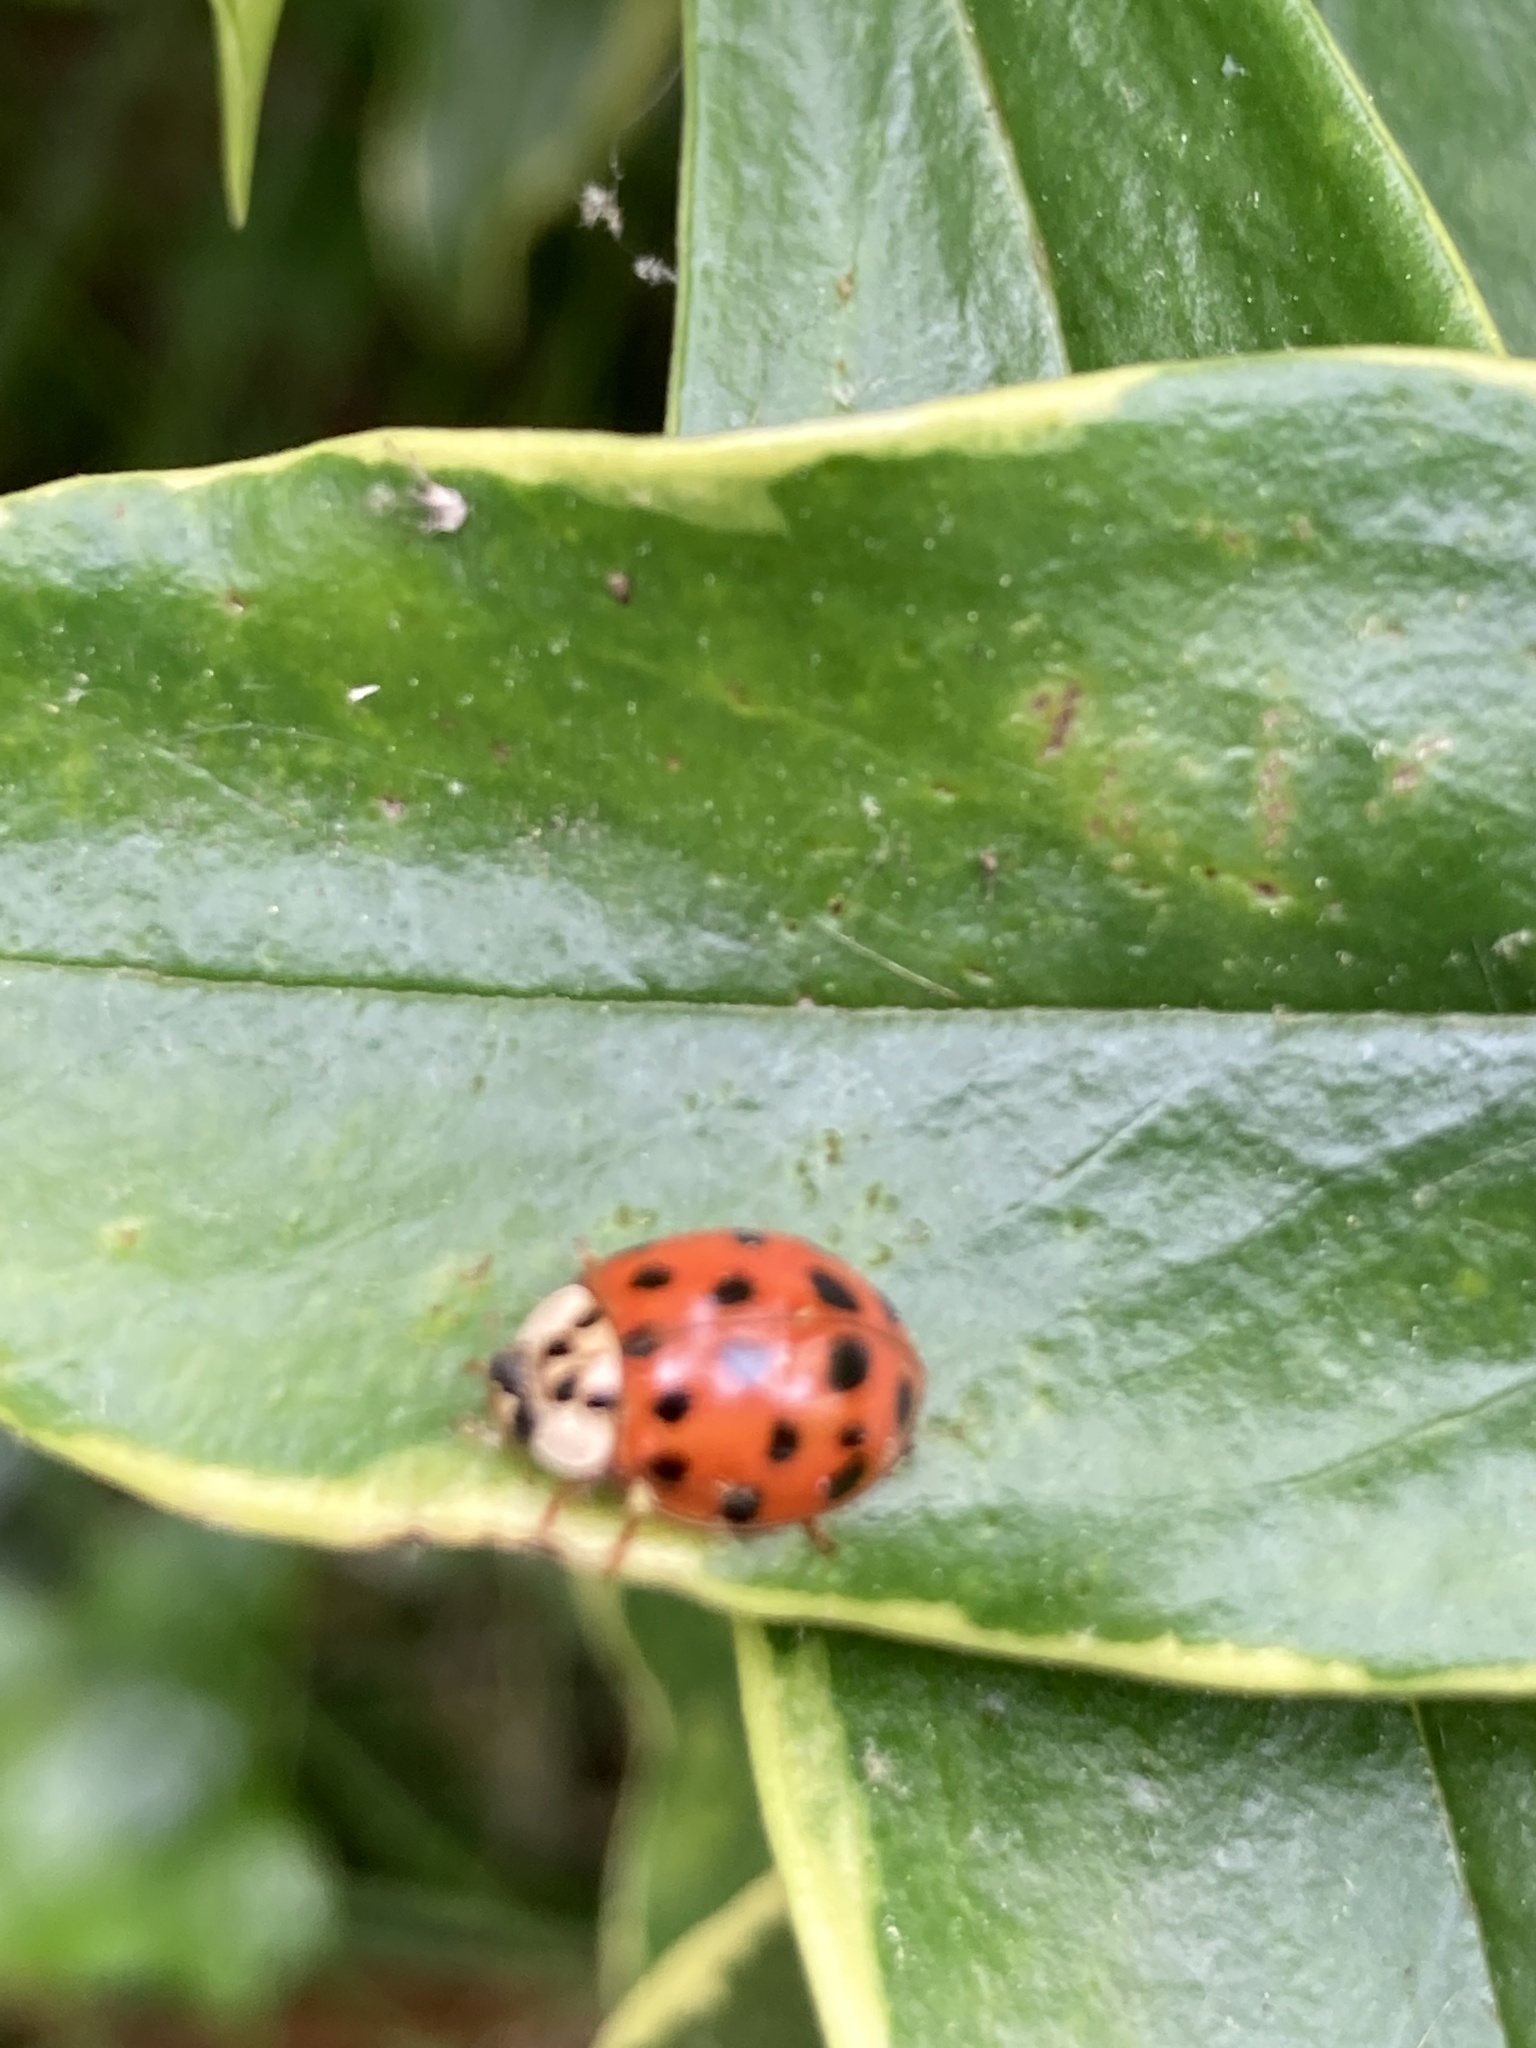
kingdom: Animalia
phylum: Arthropoda
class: Insecta
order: Coleoptera
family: Coccinellidae
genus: Harmonia
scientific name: Harmonia axyridis
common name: Harlequin ladybird
